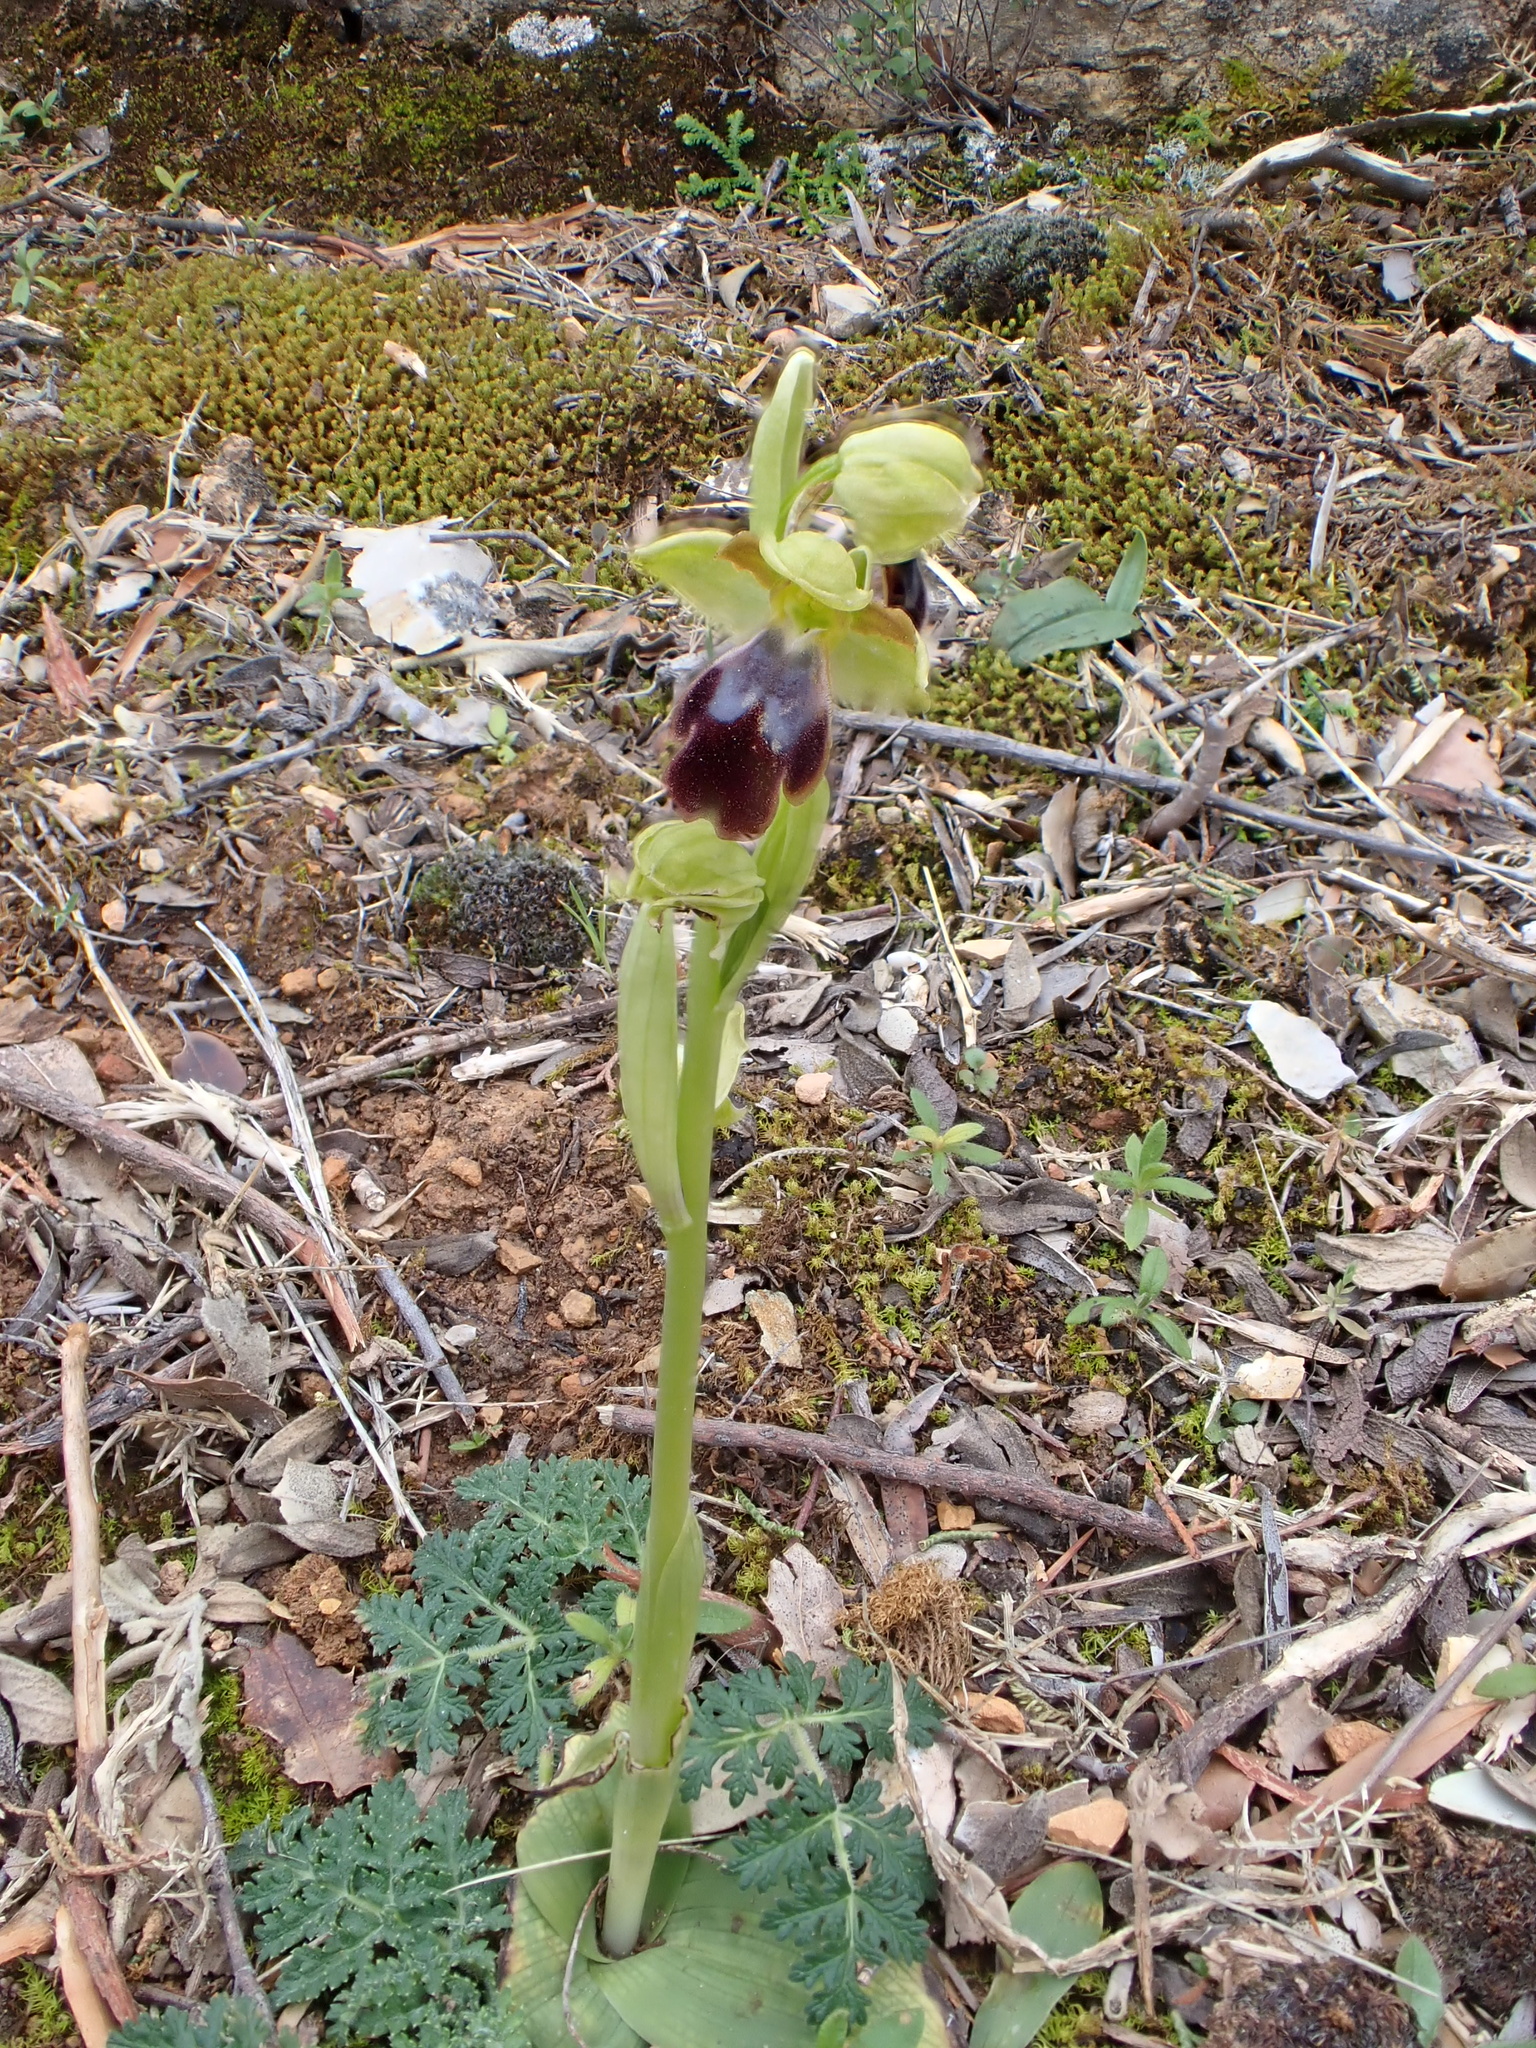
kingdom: Plantae
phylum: Tracheophyta
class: Liliopsida
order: Asparagales
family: Orchidaceae
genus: Ophrys
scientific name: Ophrys fusca
